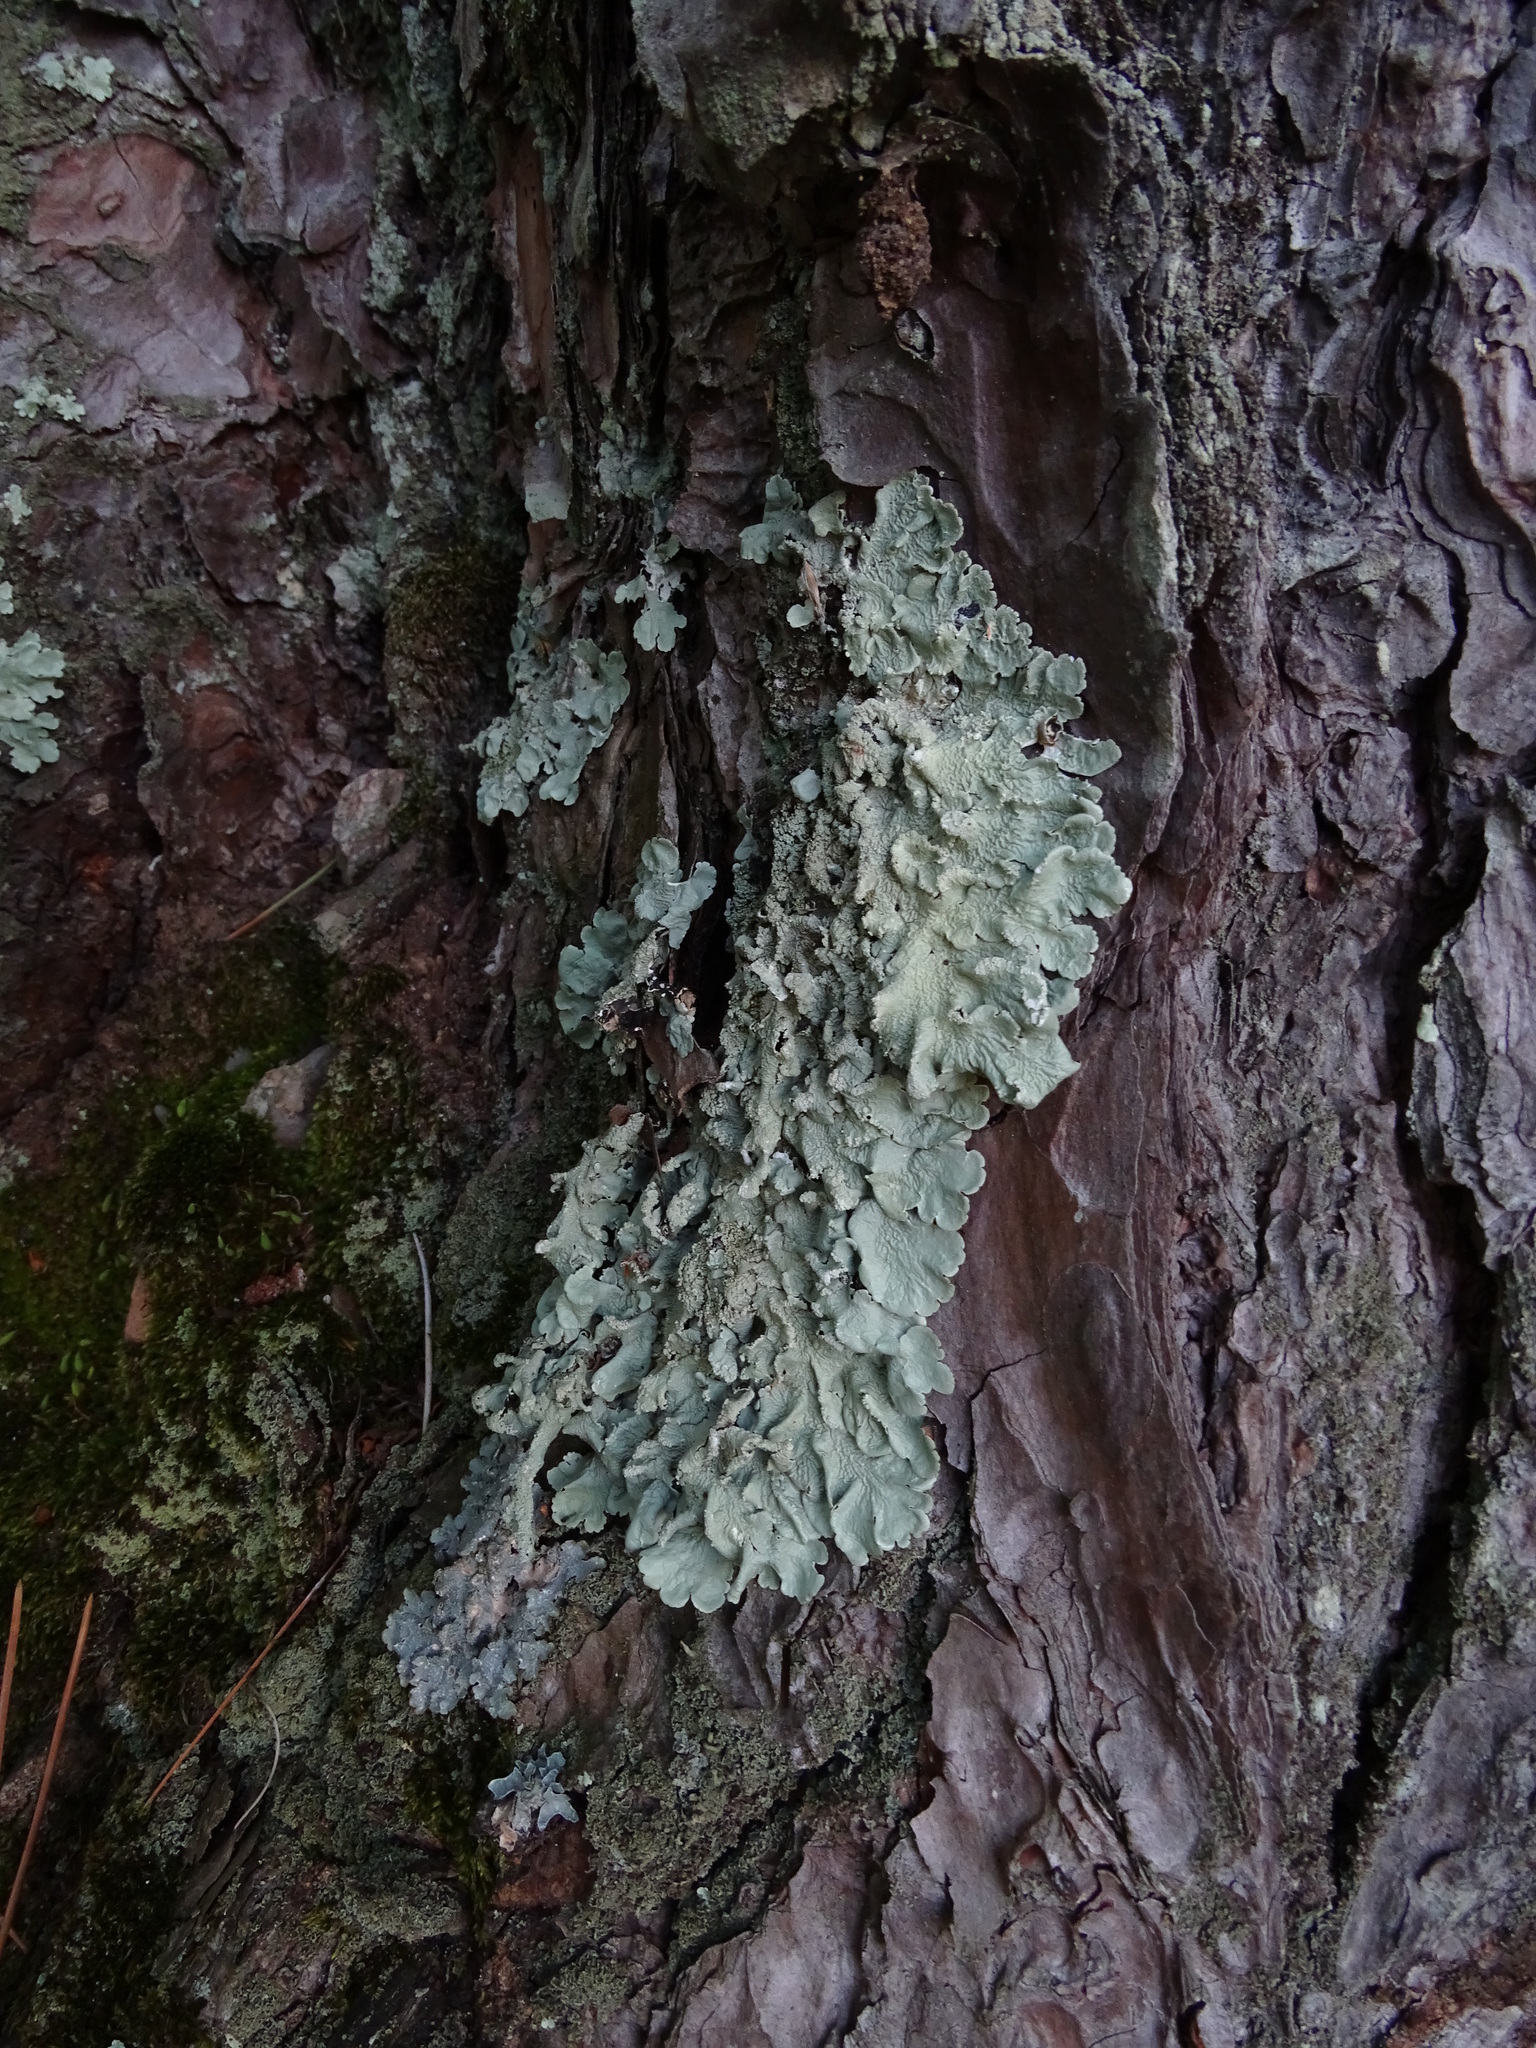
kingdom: Fungi
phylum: Ascomycota
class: Lecanoromycetes
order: Lecanorales
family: Parmeliaceae
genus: Flavoparmelia
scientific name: Flavoparmelia caperata
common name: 40-mile per hour lichen
